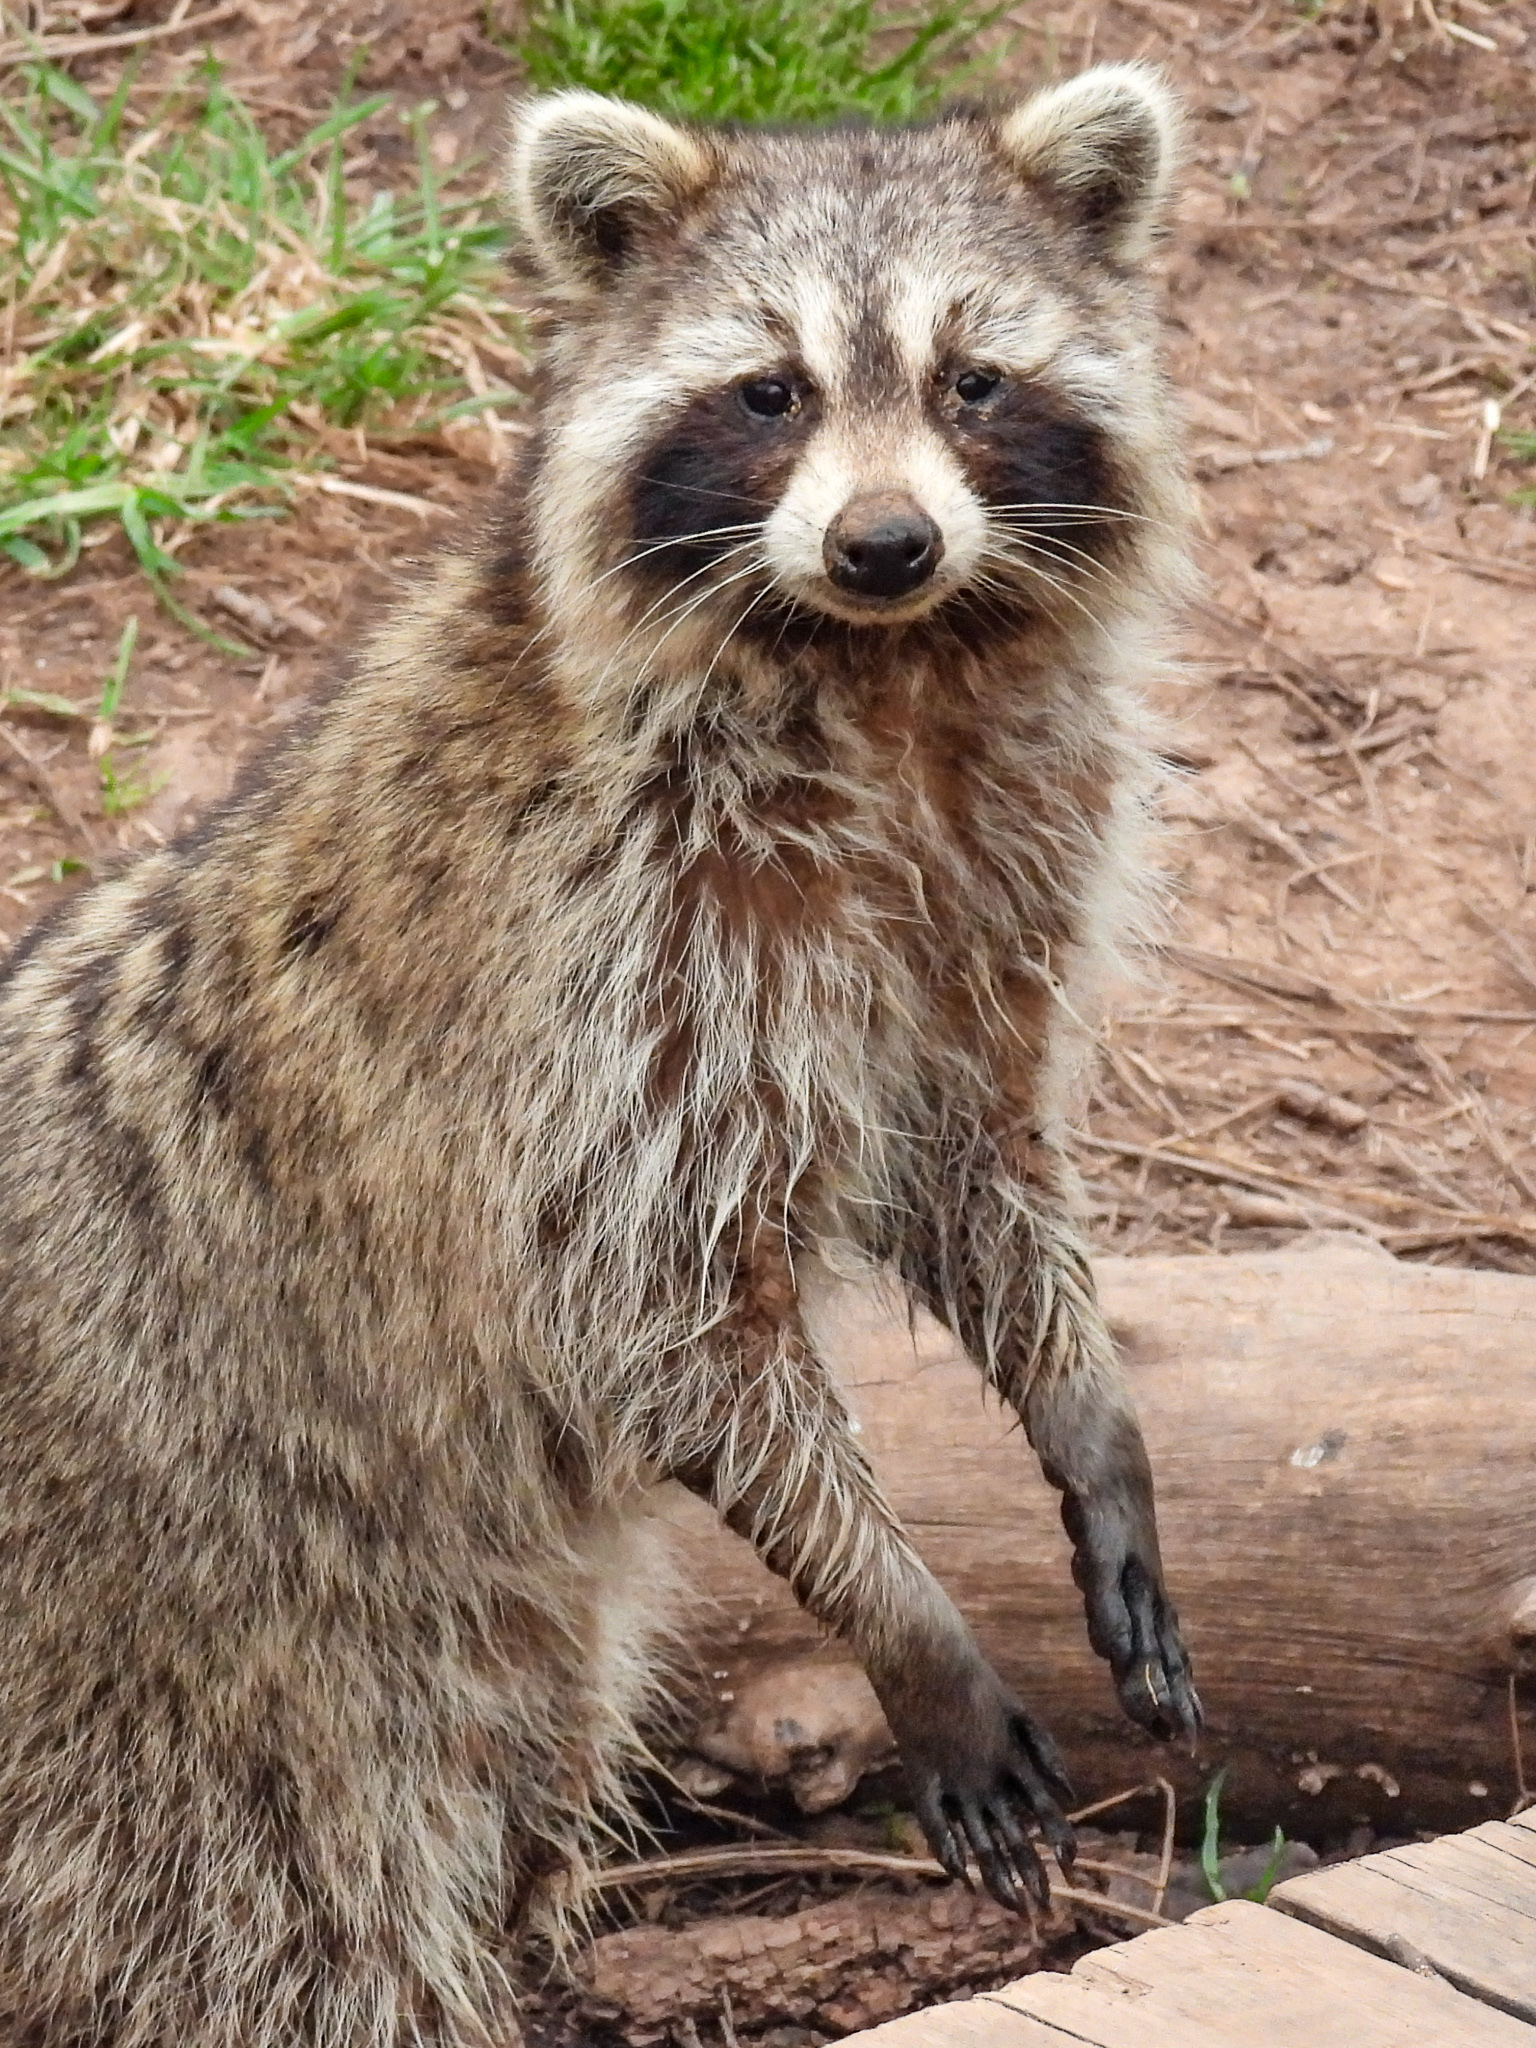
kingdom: Animalia
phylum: Chordata
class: Mammalia
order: Carnivora
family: Procyonidae
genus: Procyon
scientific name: Procyon lotor
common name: Raccoon
